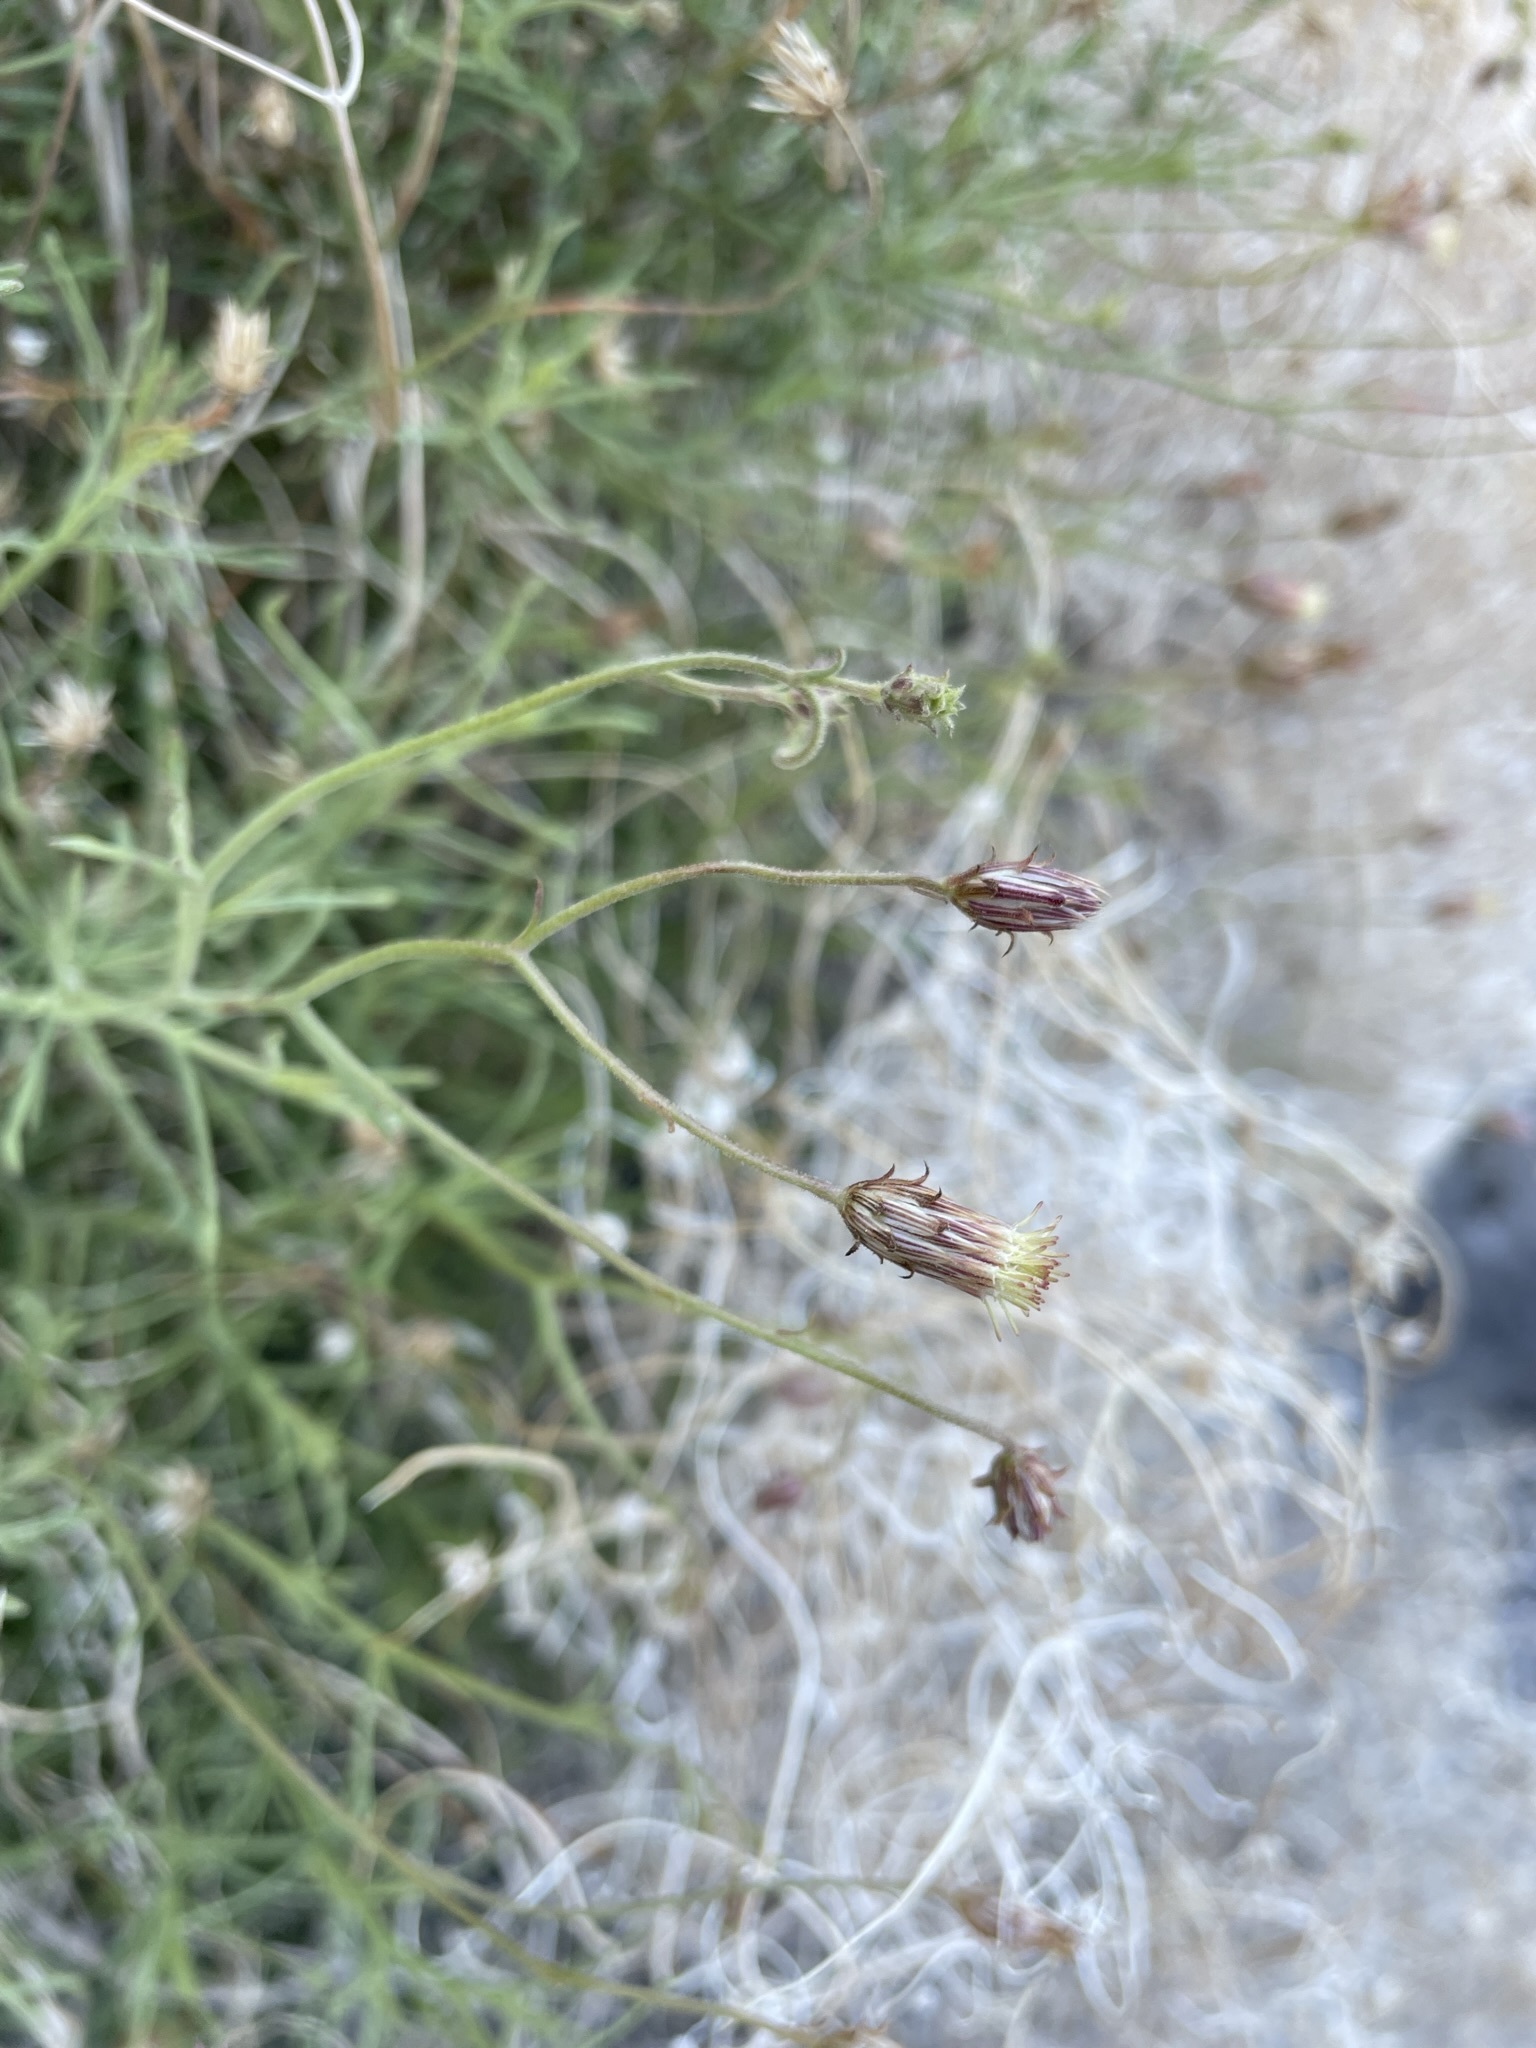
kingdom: Plantae
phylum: Tracheophyta
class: Magnoliopsida
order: Asterales
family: Asteraceae
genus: Pleurocoronis
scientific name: Pleurocoronis pluriseta
